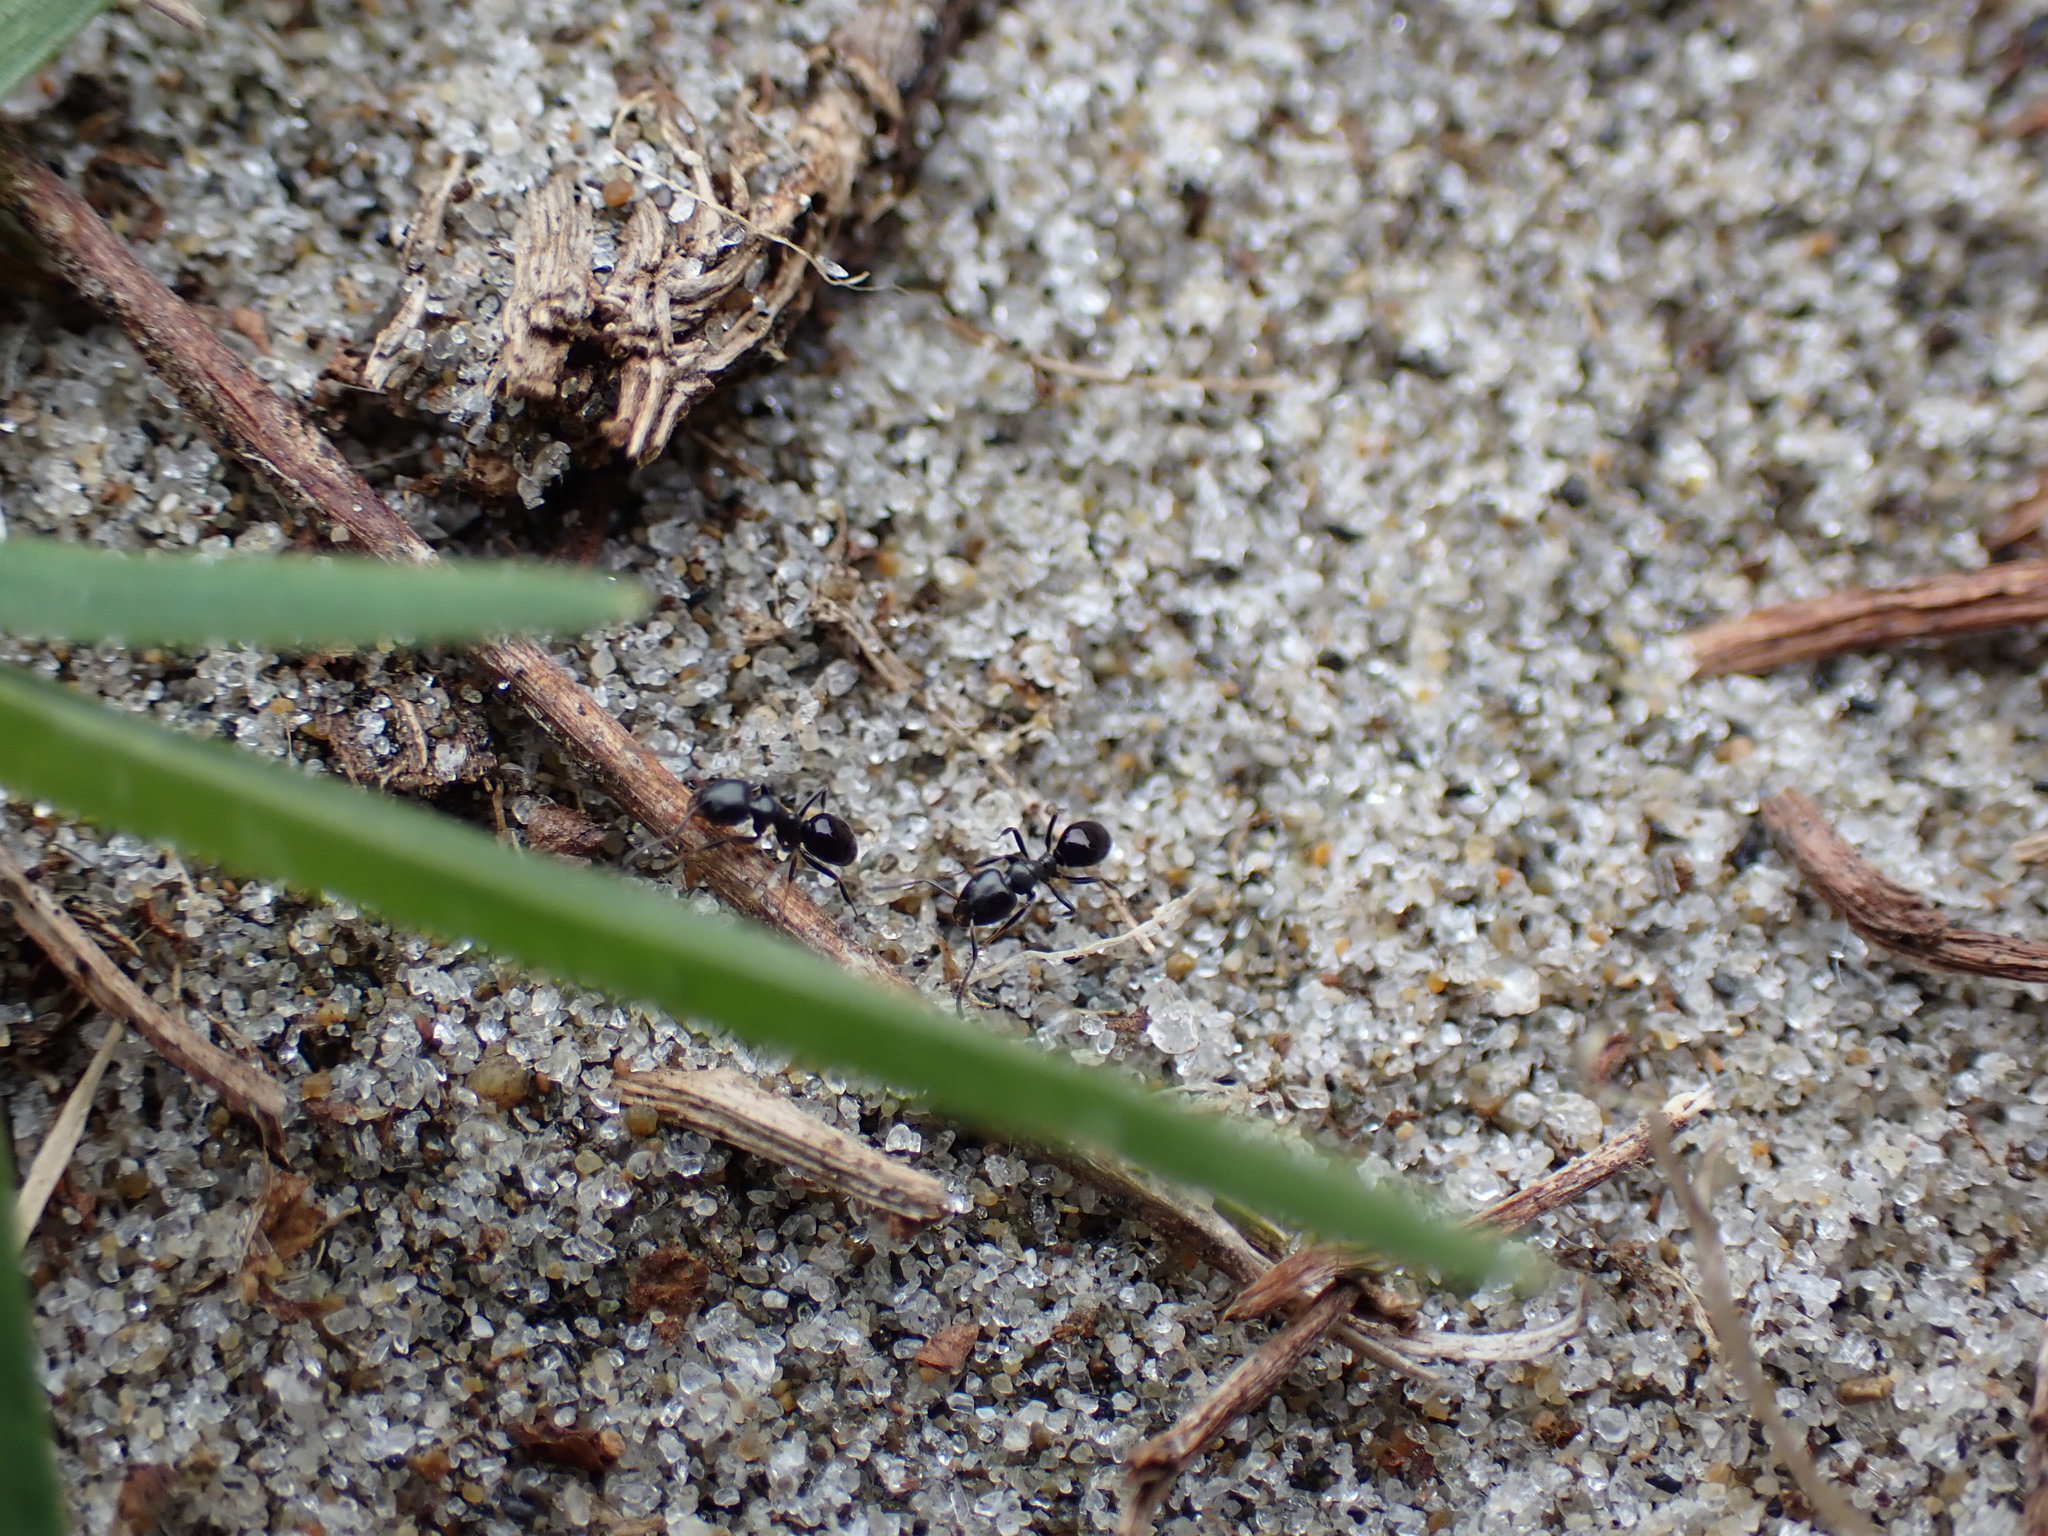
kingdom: Animalia
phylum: Arthropoda
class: Insecta
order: Hymenoptera
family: Formicidae
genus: Ochetellus
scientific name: Ochetellus glaber
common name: Ant
